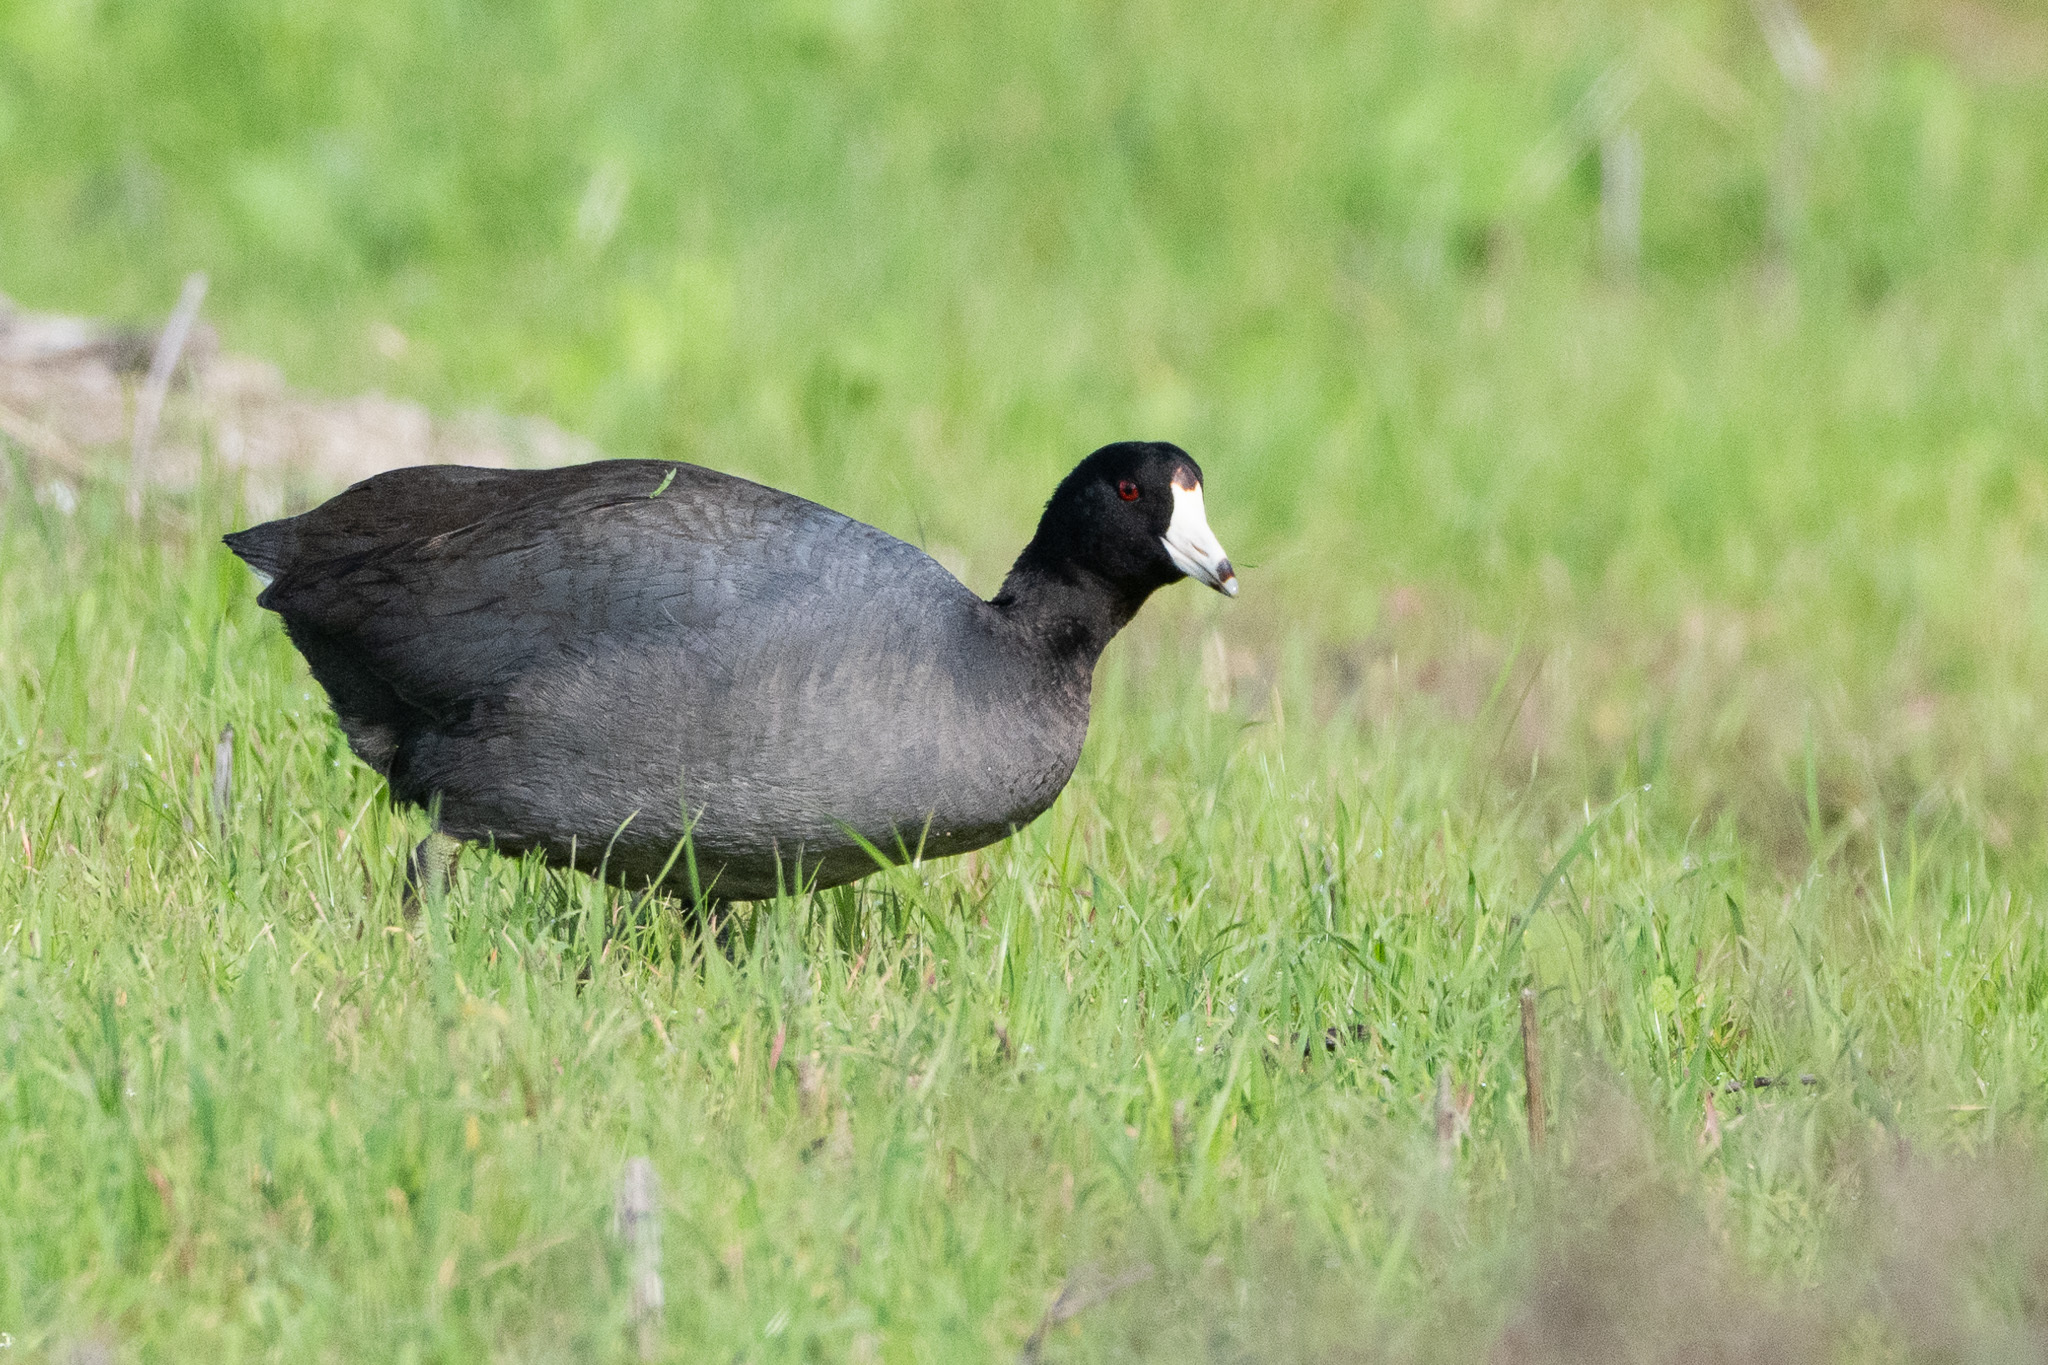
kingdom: Animalia
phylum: Chordata
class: Aves
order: Gruiformes
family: Rallidae
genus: Fulica
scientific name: Fulica americana
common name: American coot
